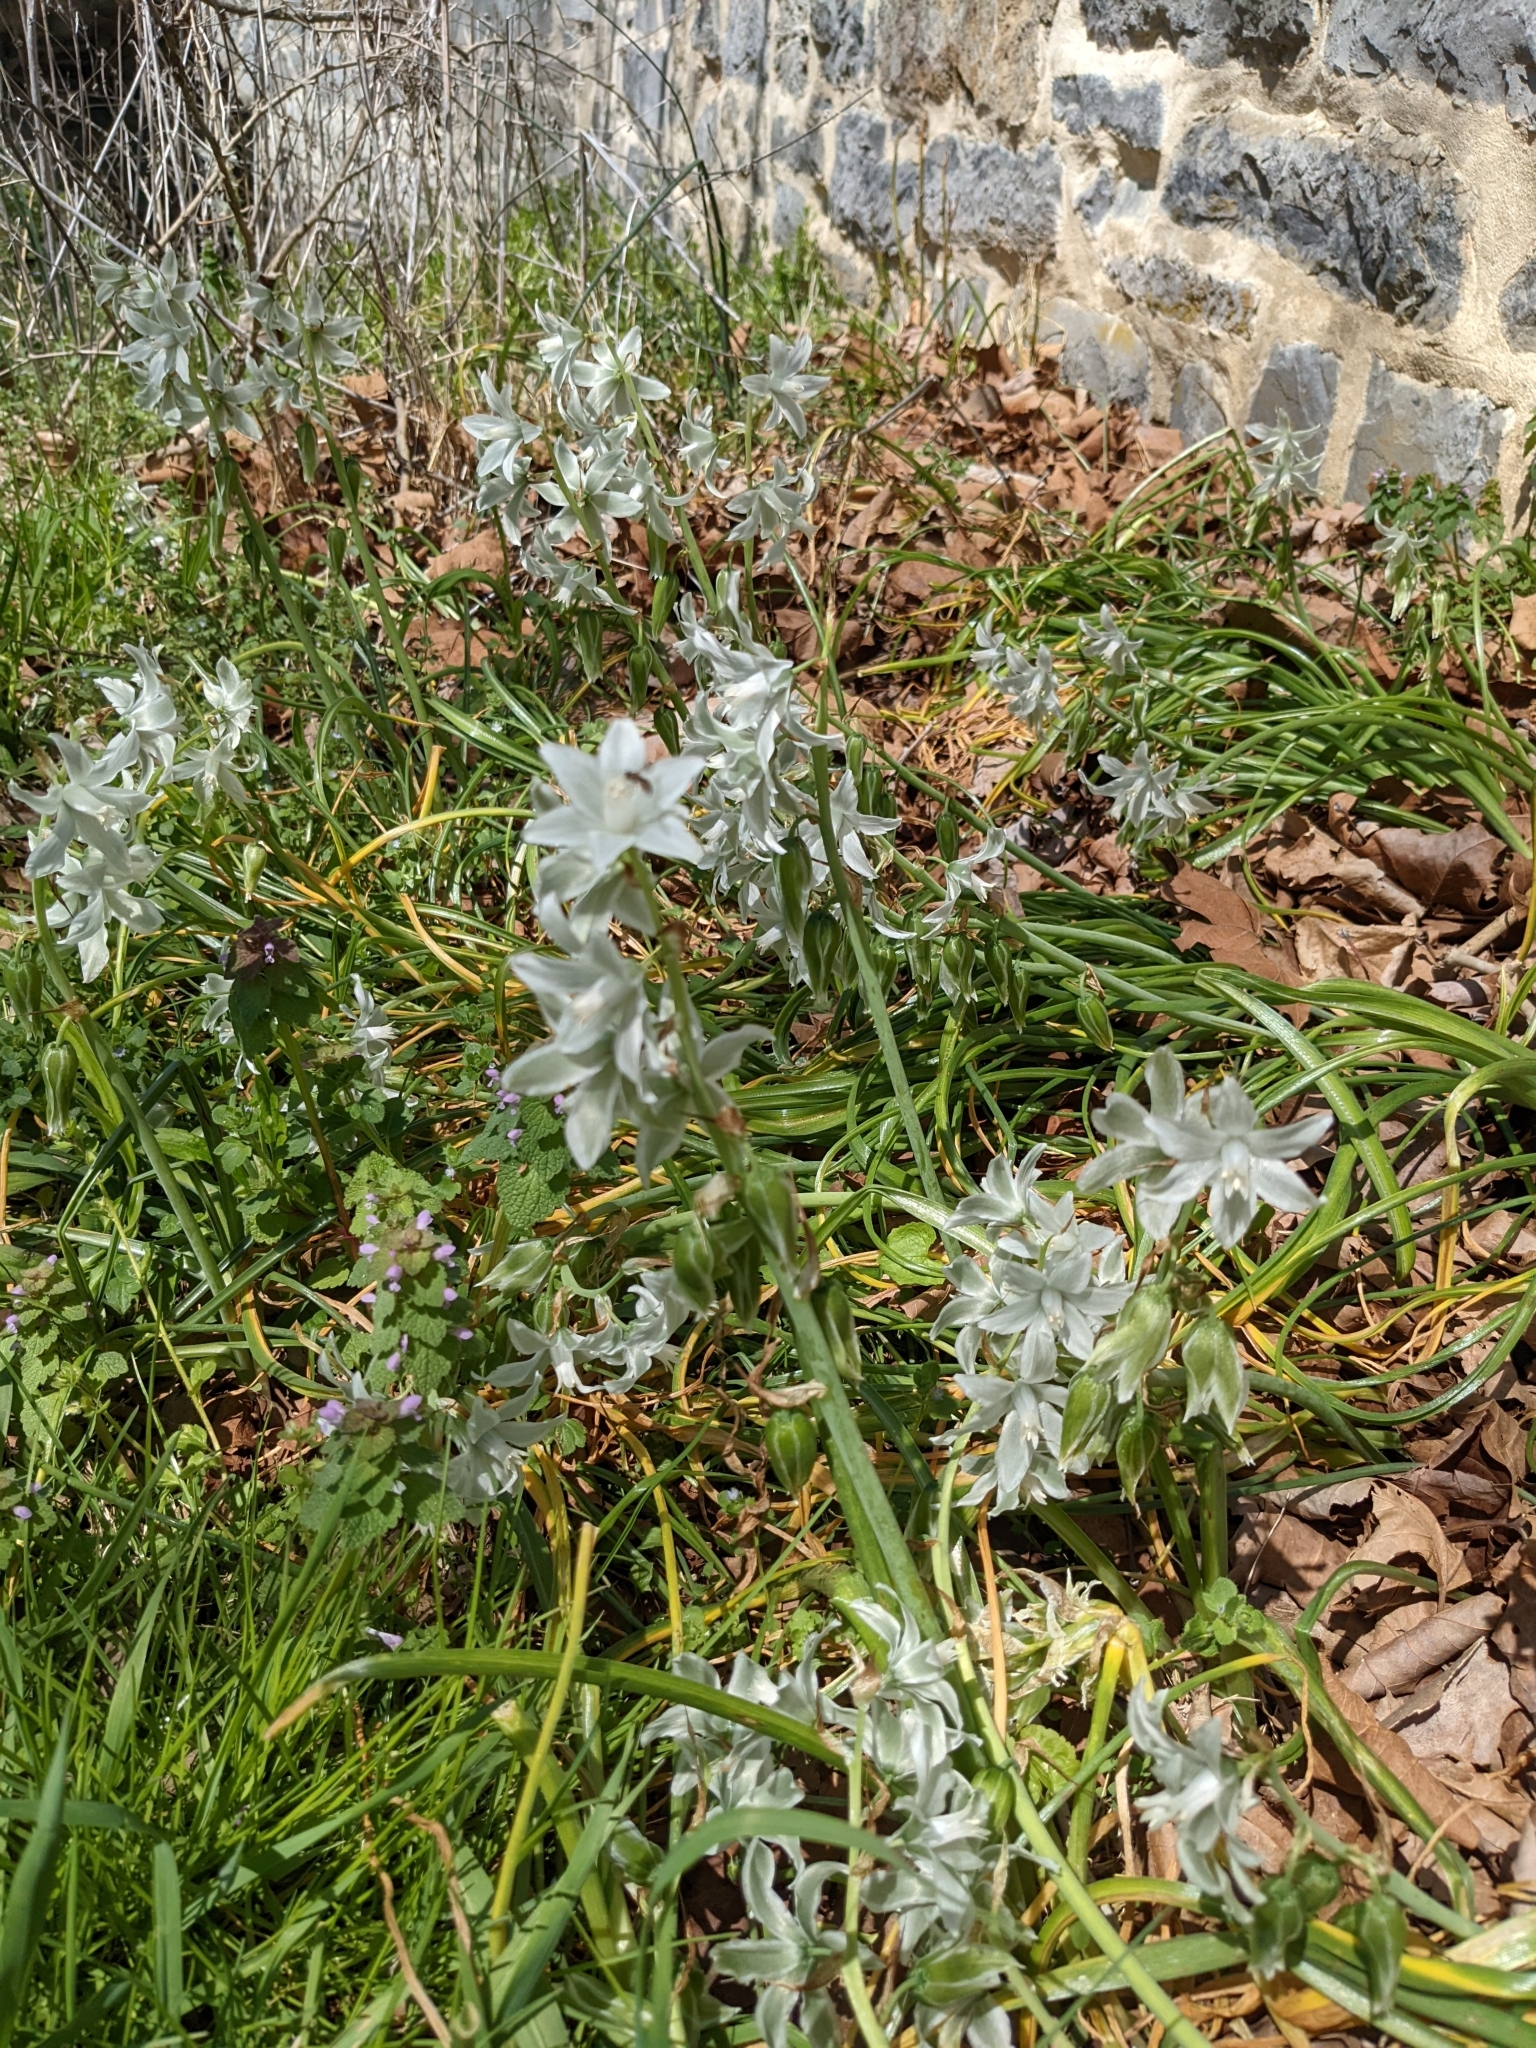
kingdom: Plantae
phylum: Tracheophyta
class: Liliopsida
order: Asparagales
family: Asparagaceae
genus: Ornithogalum
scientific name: Ornithogalum nutans
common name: Drooping star-of-bethlehem
